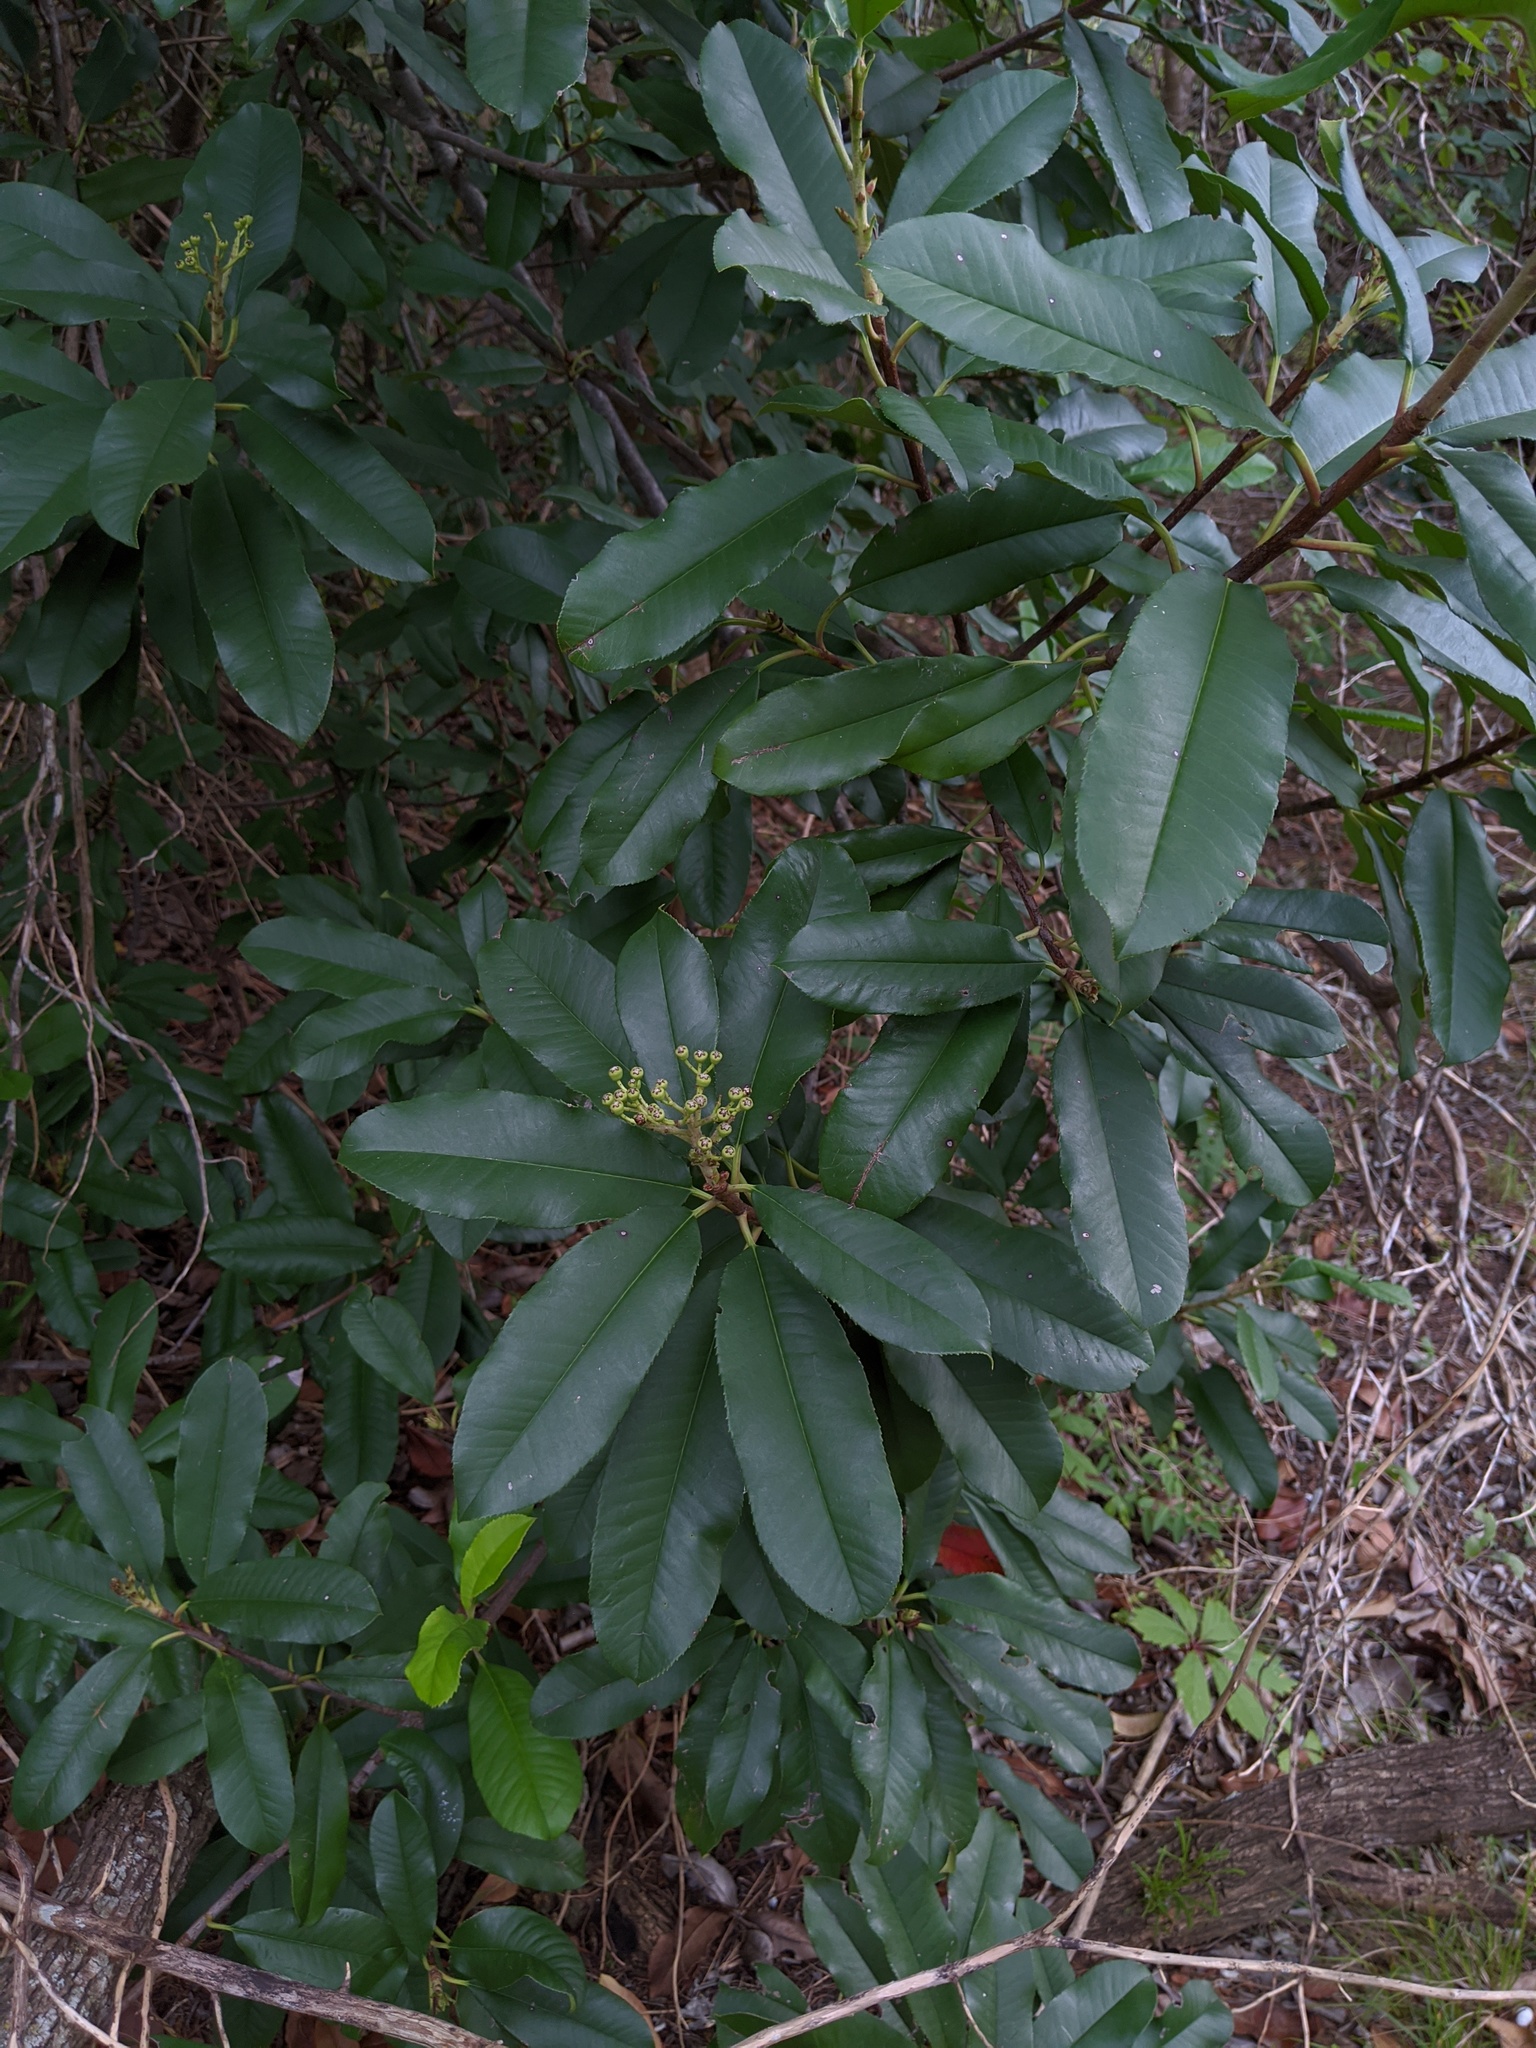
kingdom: Plantae
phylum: Tracheophyta
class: Magnoliopsida
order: Rosales
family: Rosaceae
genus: Photinia
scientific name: Photinia serratifolia
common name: Taiwanese photinia
